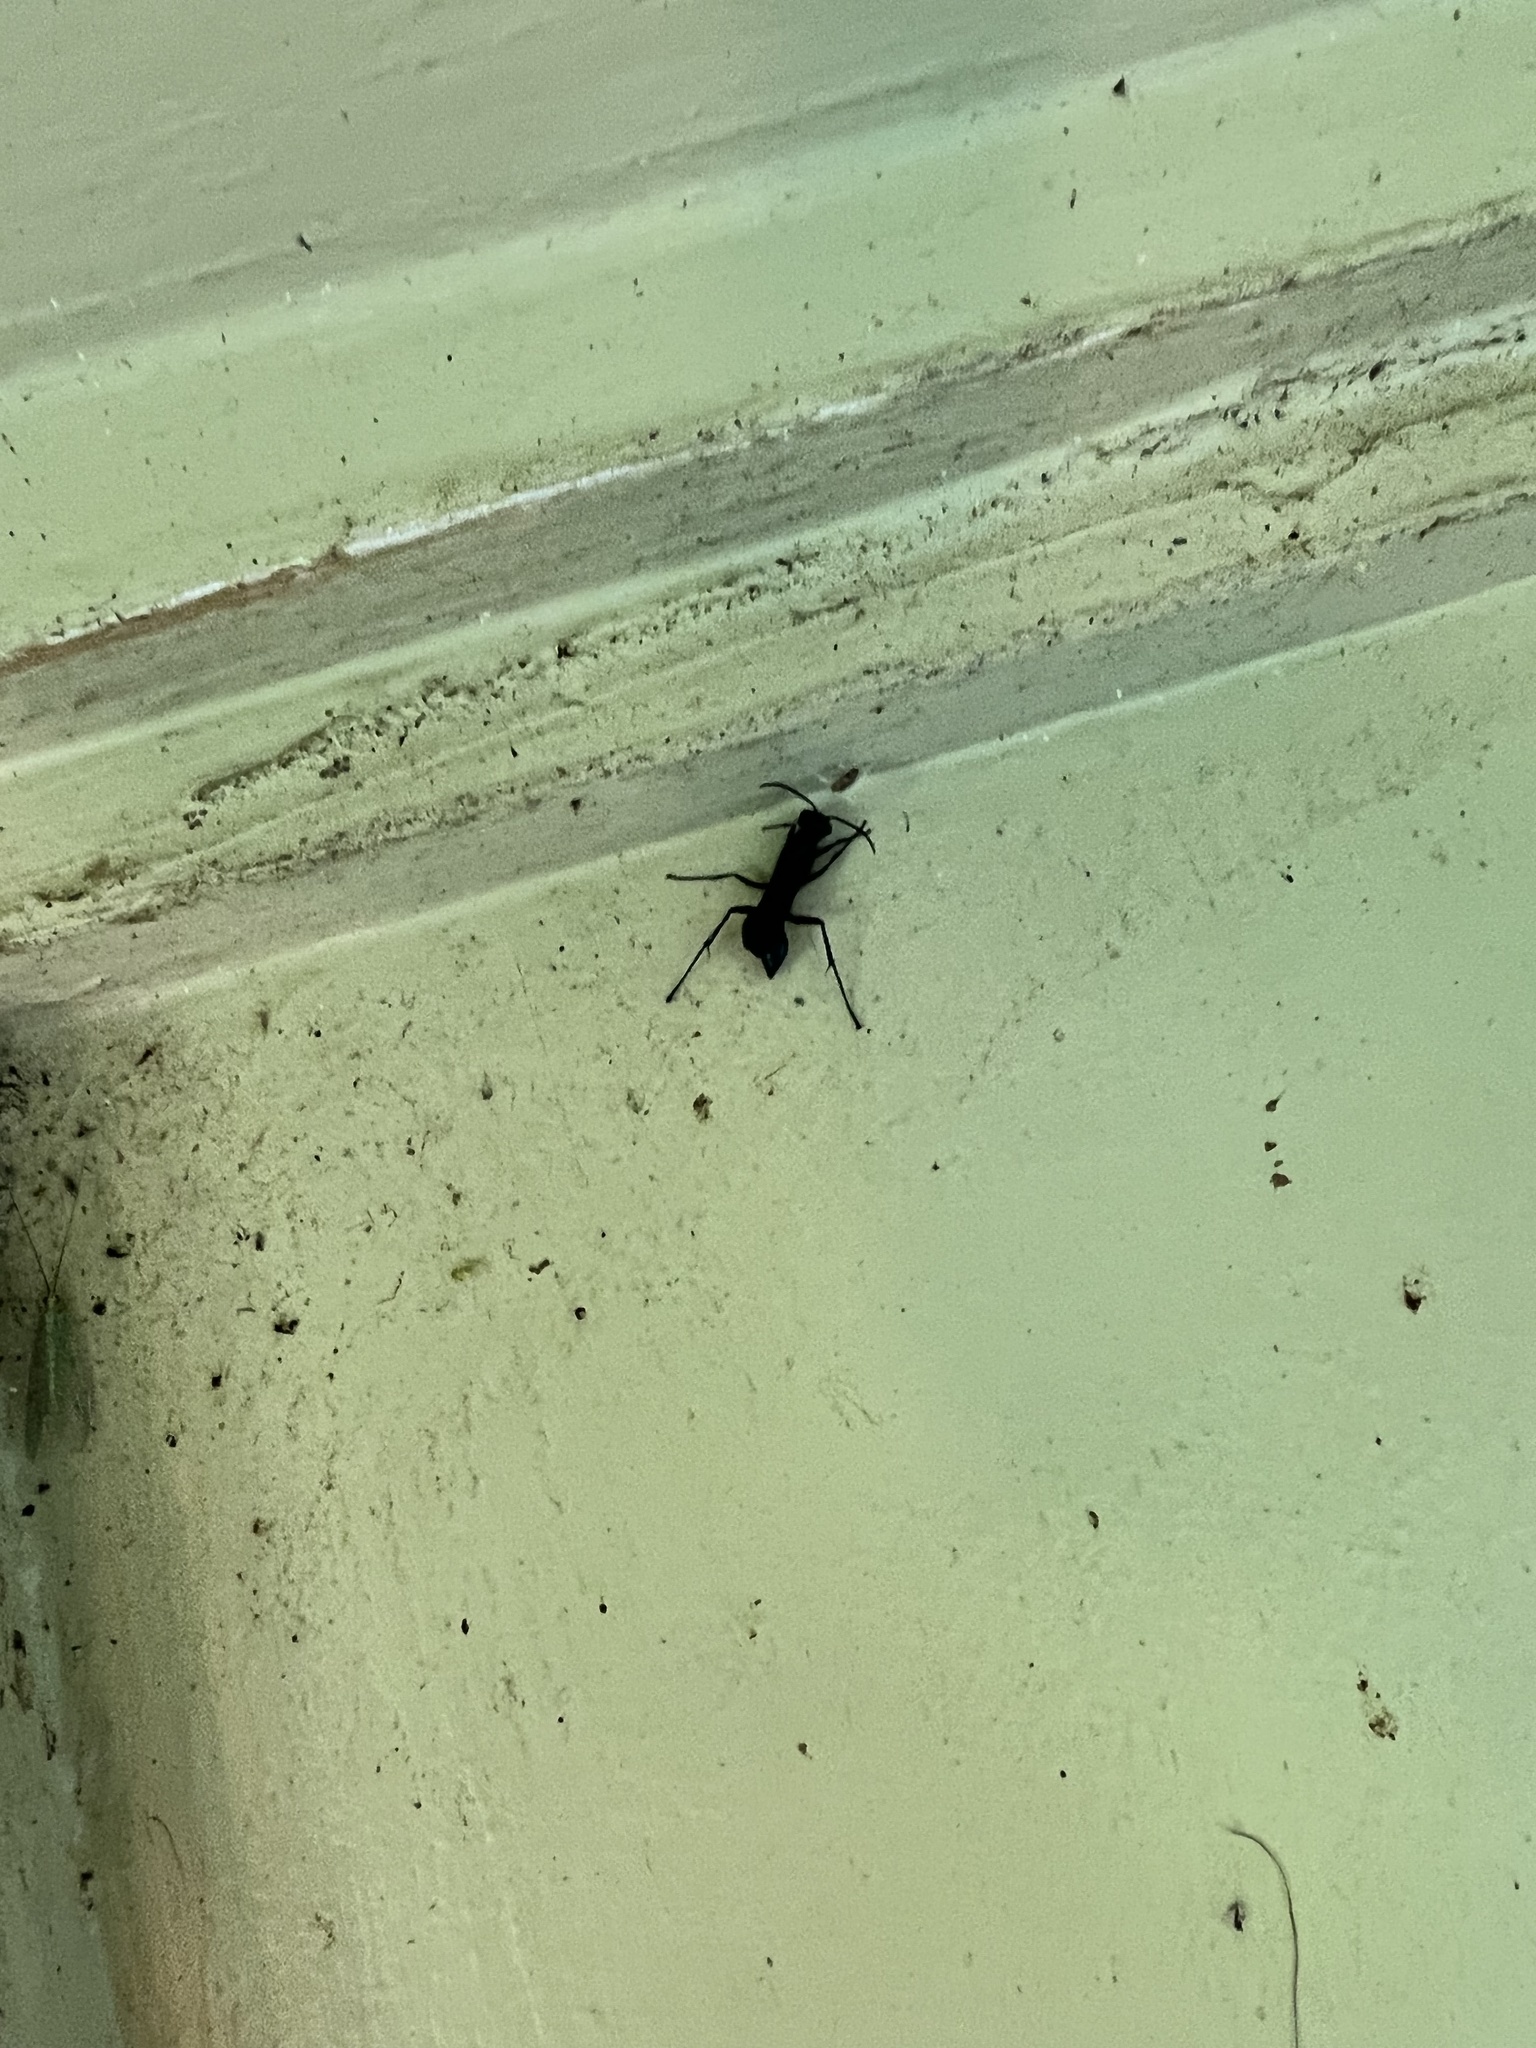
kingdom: Animalia
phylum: Arthropoda
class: Insecta
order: Hymenoptera
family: Sphecidae
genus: Chalybion
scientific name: Chalybion californicum
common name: Mud dauber
